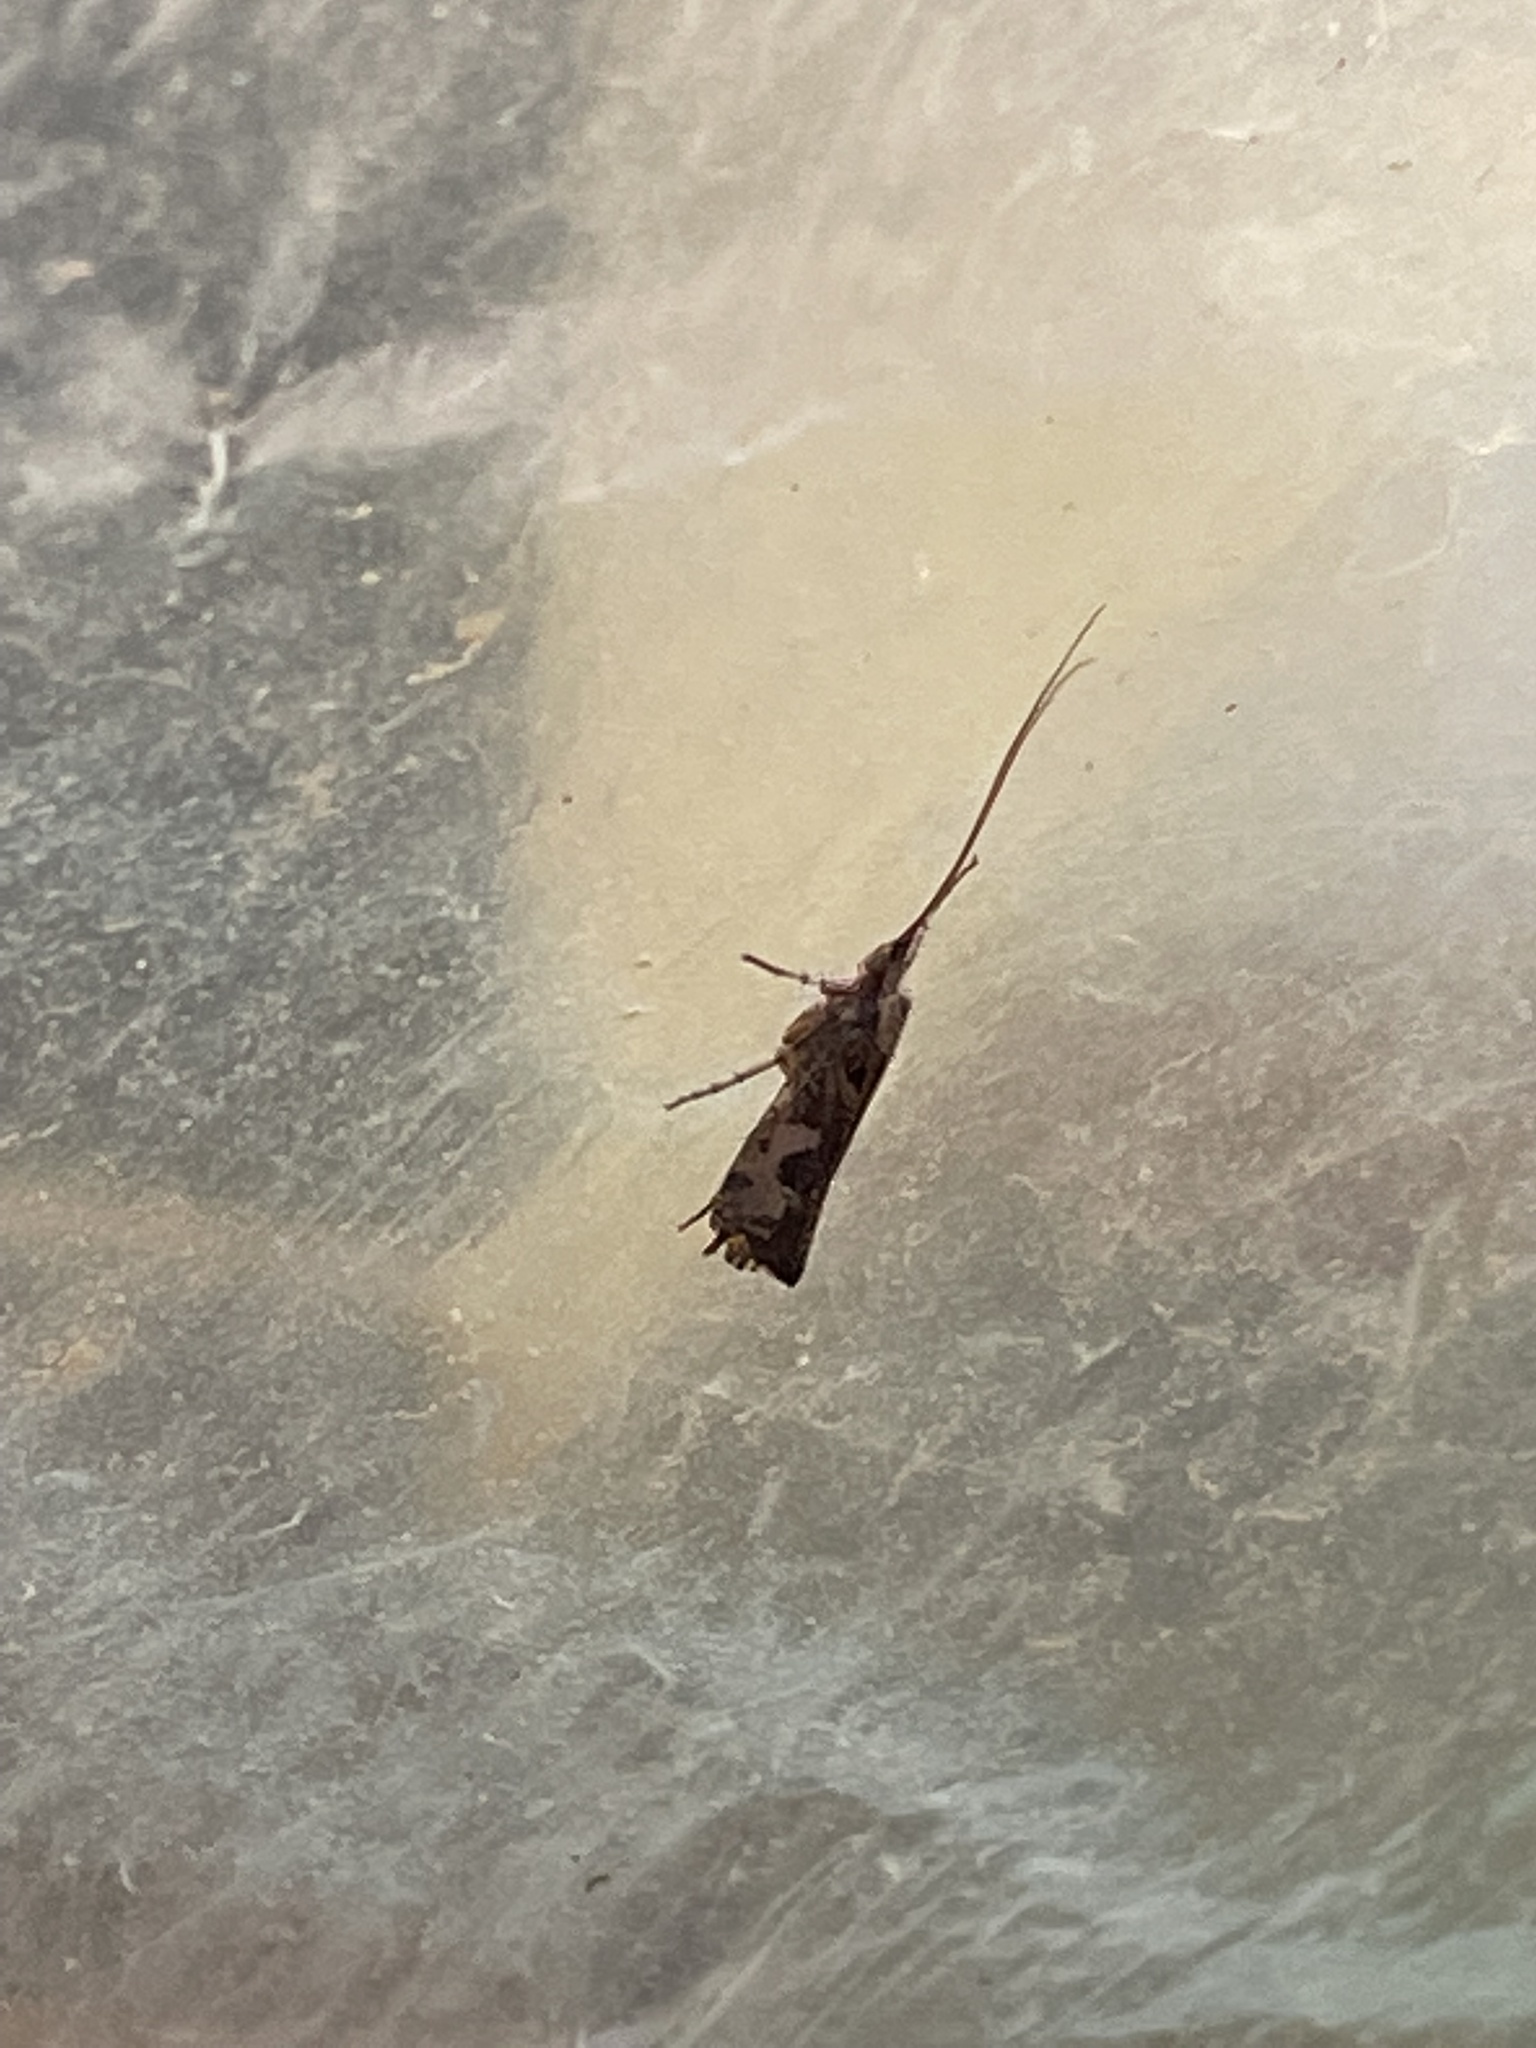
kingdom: Animalia
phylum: Arthropoda
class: Insecta
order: Trichoptera
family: Limnephilidae
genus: Glyphotaelius
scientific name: Glyphotaelius pellucidus
